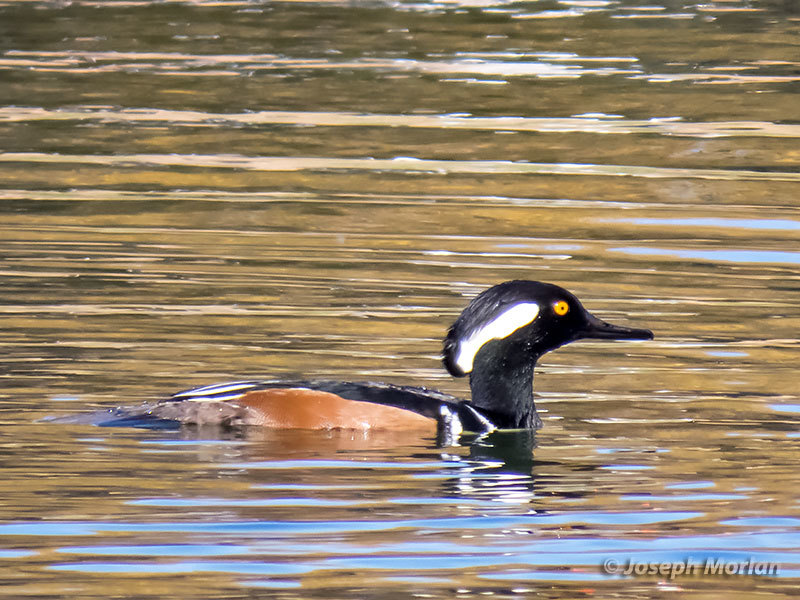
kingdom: Animalia
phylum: Chordata
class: Aves
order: Anseriformes
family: Anatidae
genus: Lophodytes
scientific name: Lophodytes cucullatus
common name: Hooded merganser
